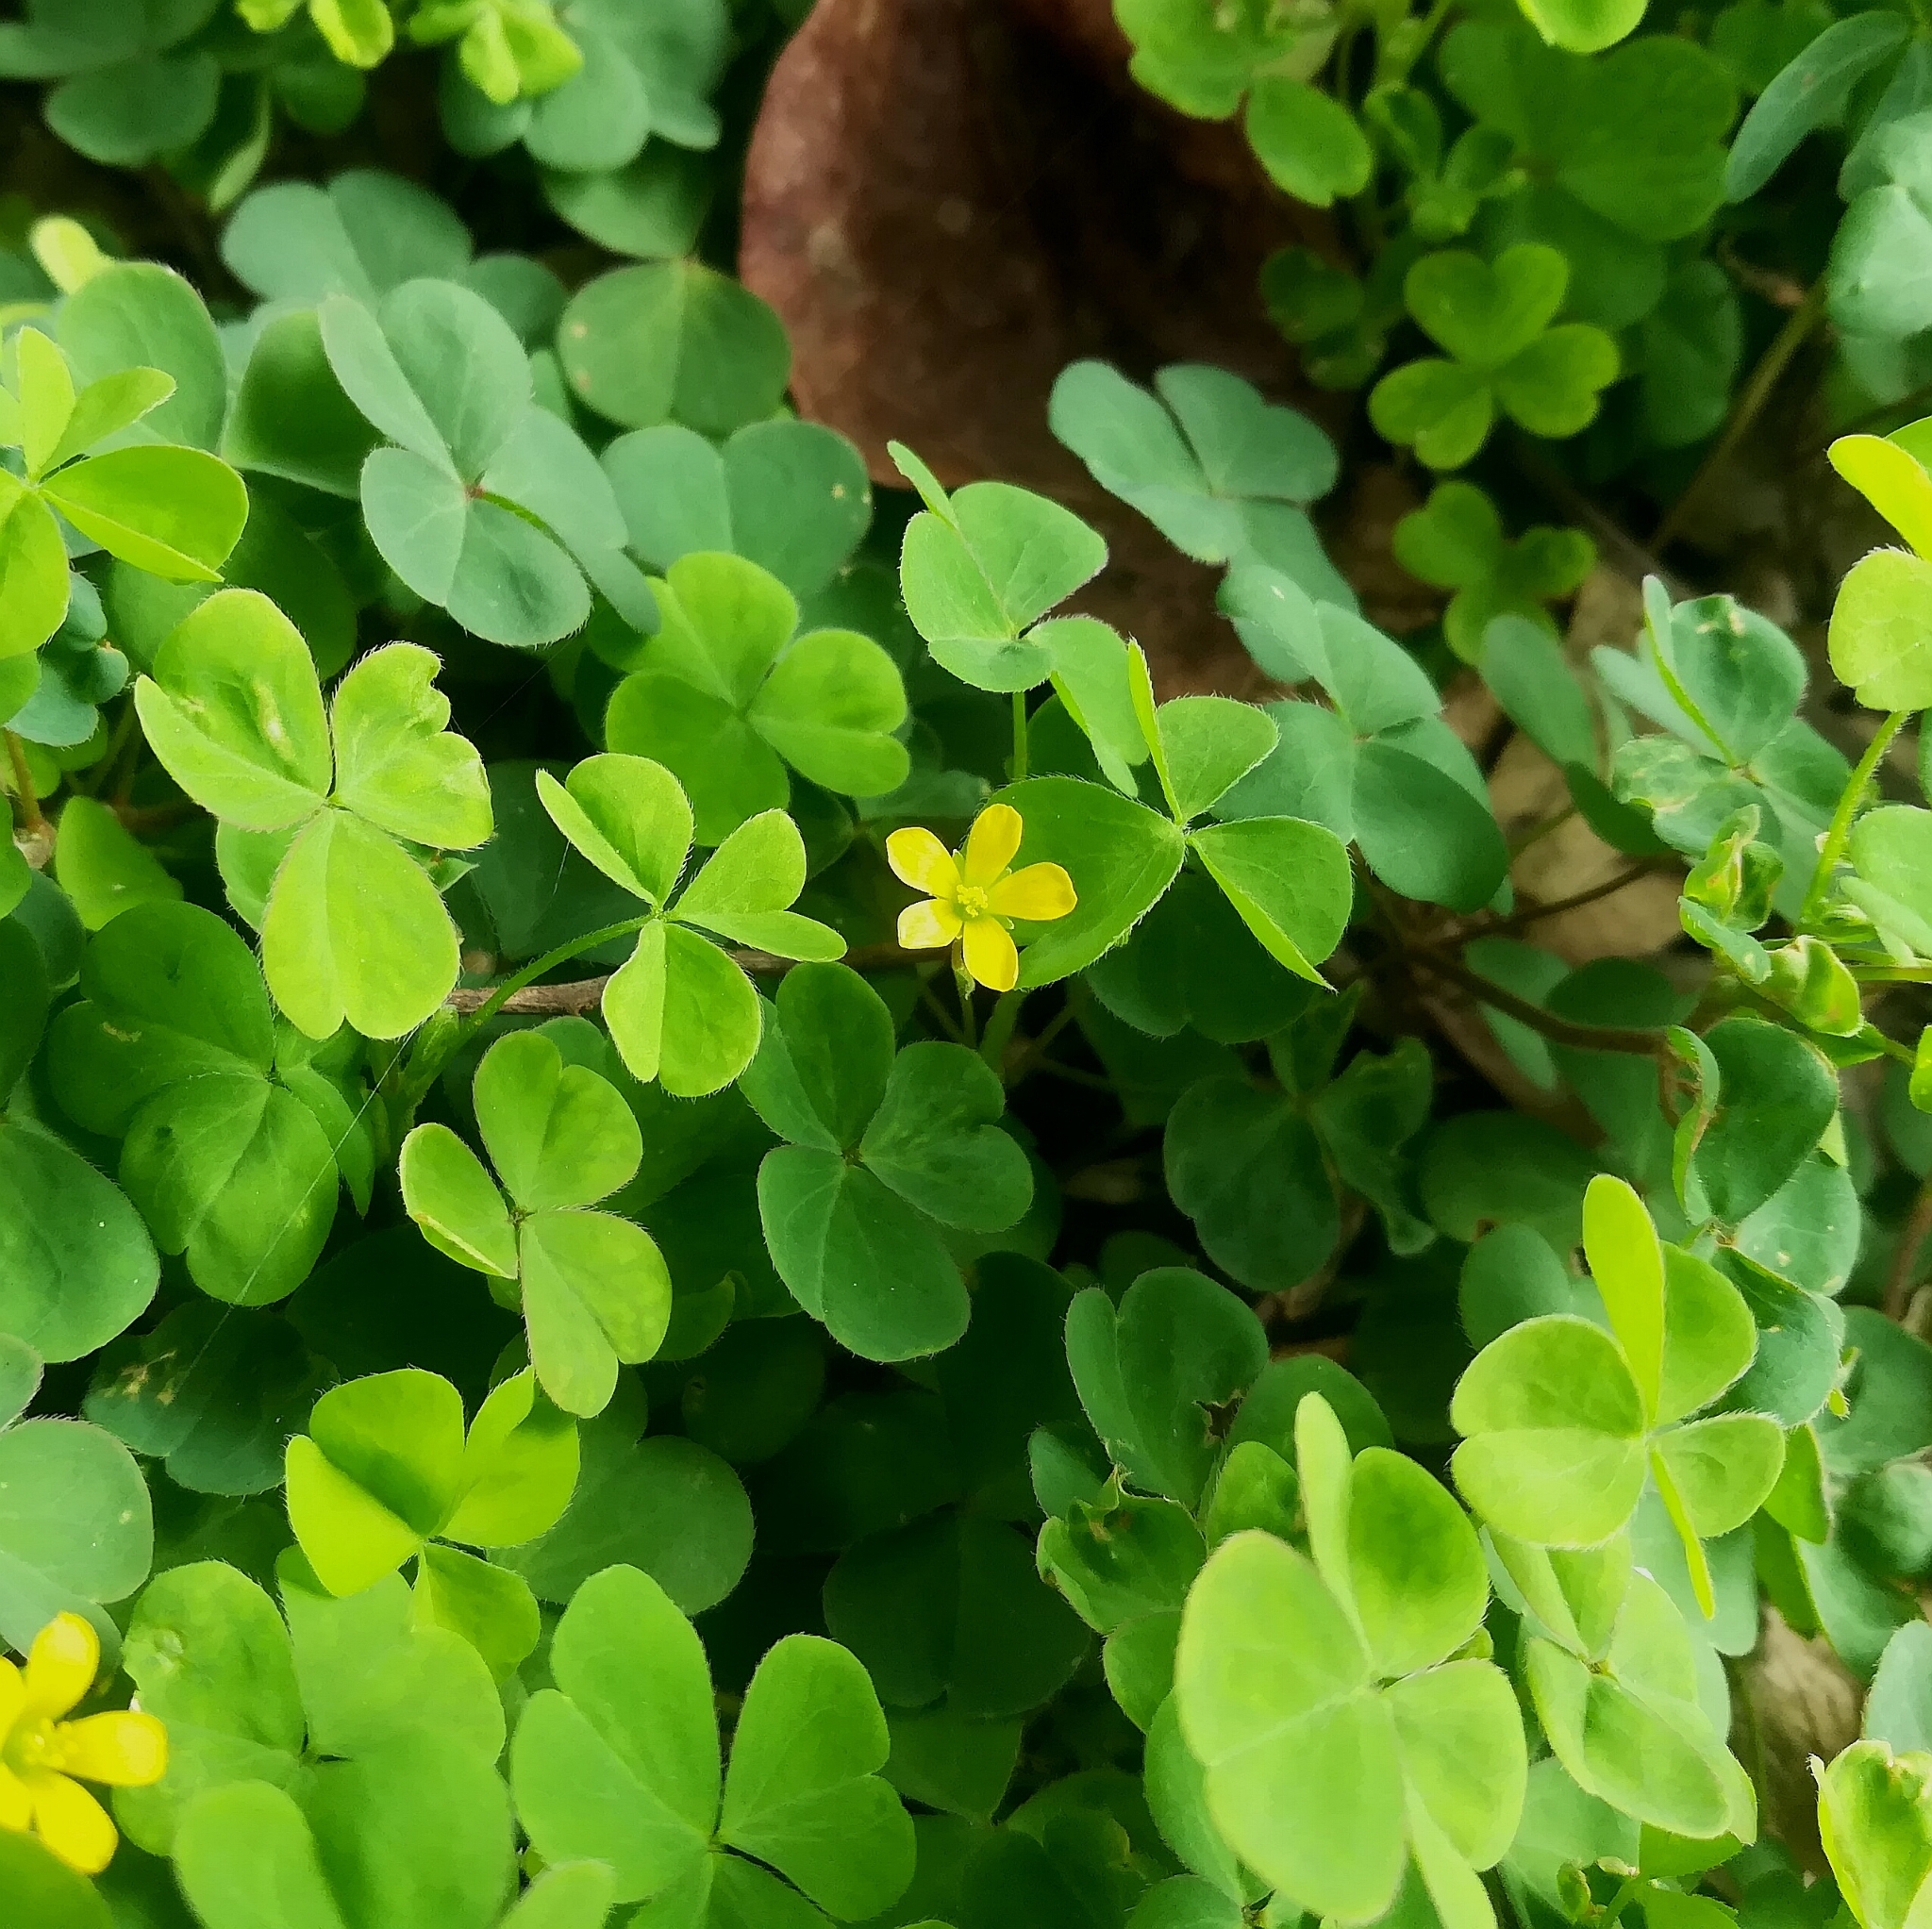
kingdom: Plantae
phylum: Tracheophyta
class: Magnoliopsida
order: Oxalidales
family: Oxalidaceae
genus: Oxalis
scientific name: Oxalis corniculata
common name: Procumbent yellow-sorrel
